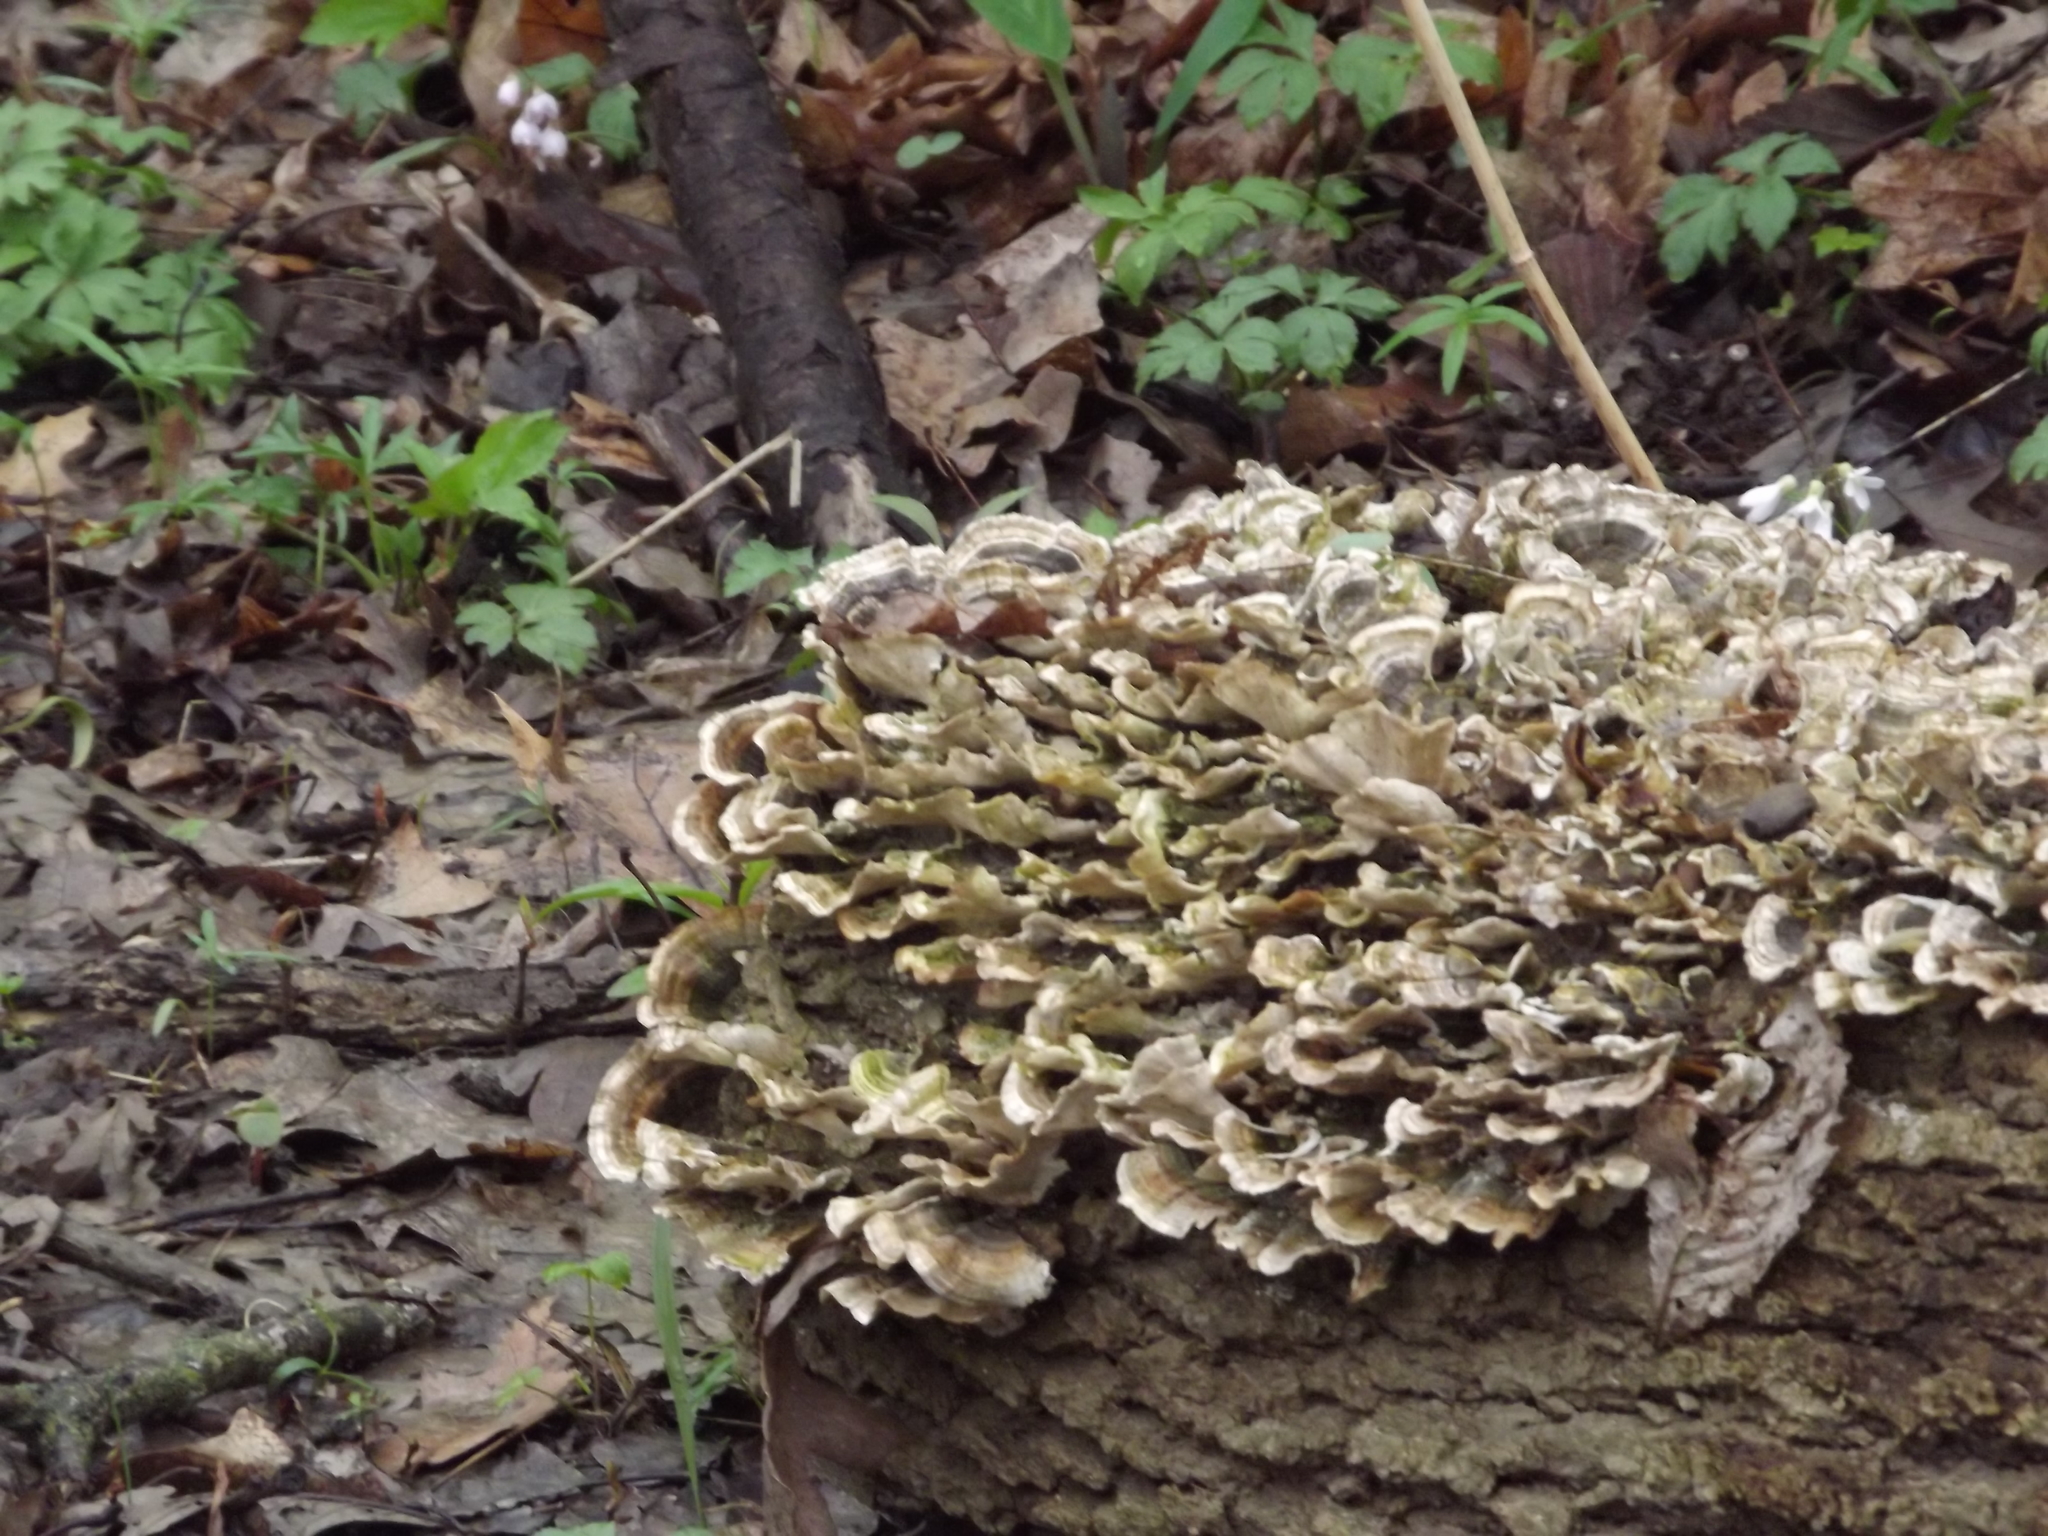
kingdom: Fungi
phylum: Basidiomycota
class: Agaricomycetes
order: Polyporales
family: Polyporaceae
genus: Trametes
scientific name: Trametes versicolor
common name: Turkeytail
